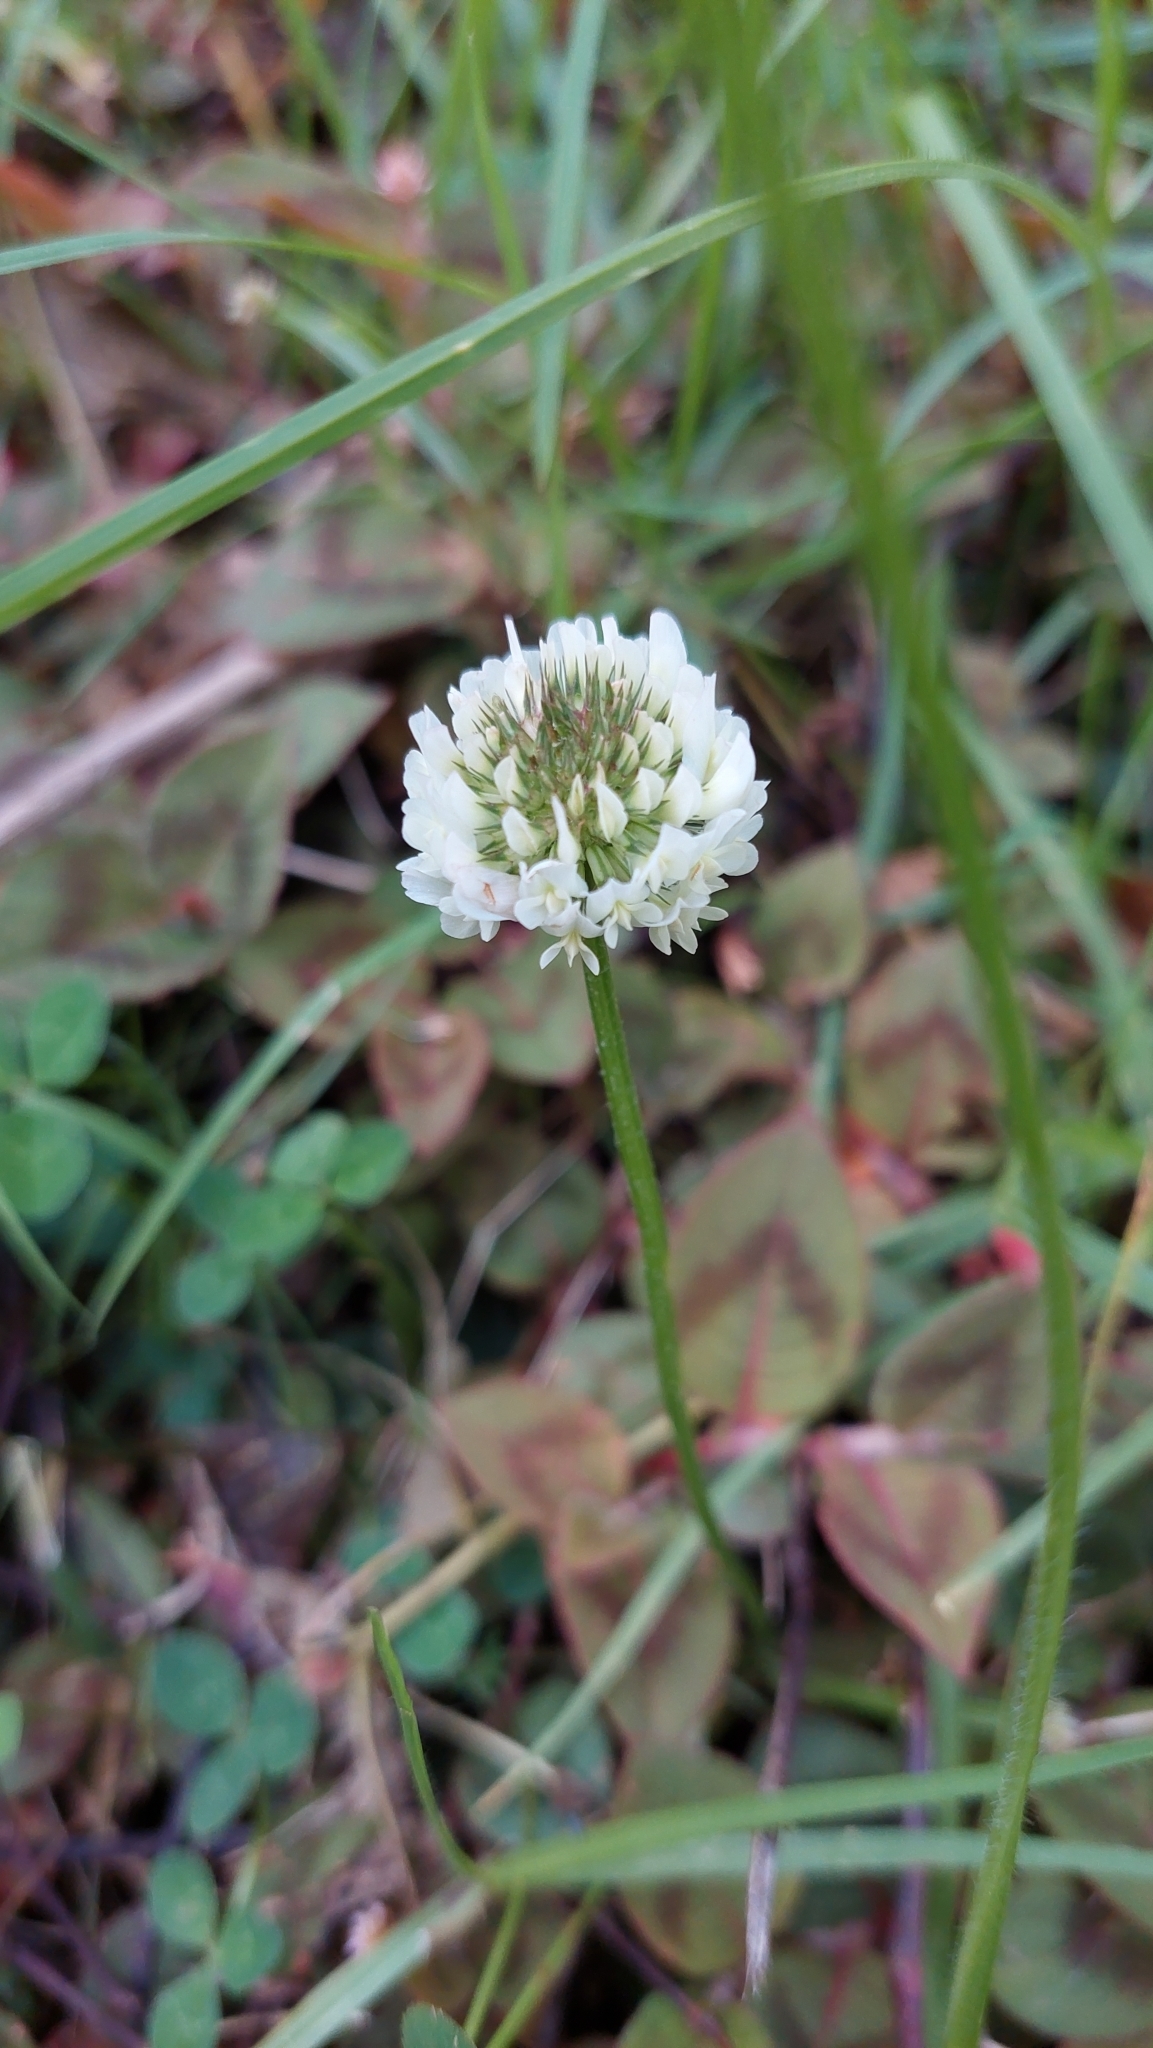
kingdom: Plantae
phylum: Tracheophyta
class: Magnoliopsida
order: Fabales
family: Fabaceae
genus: Trifolium
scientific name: Trifolium repens
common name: White clover
